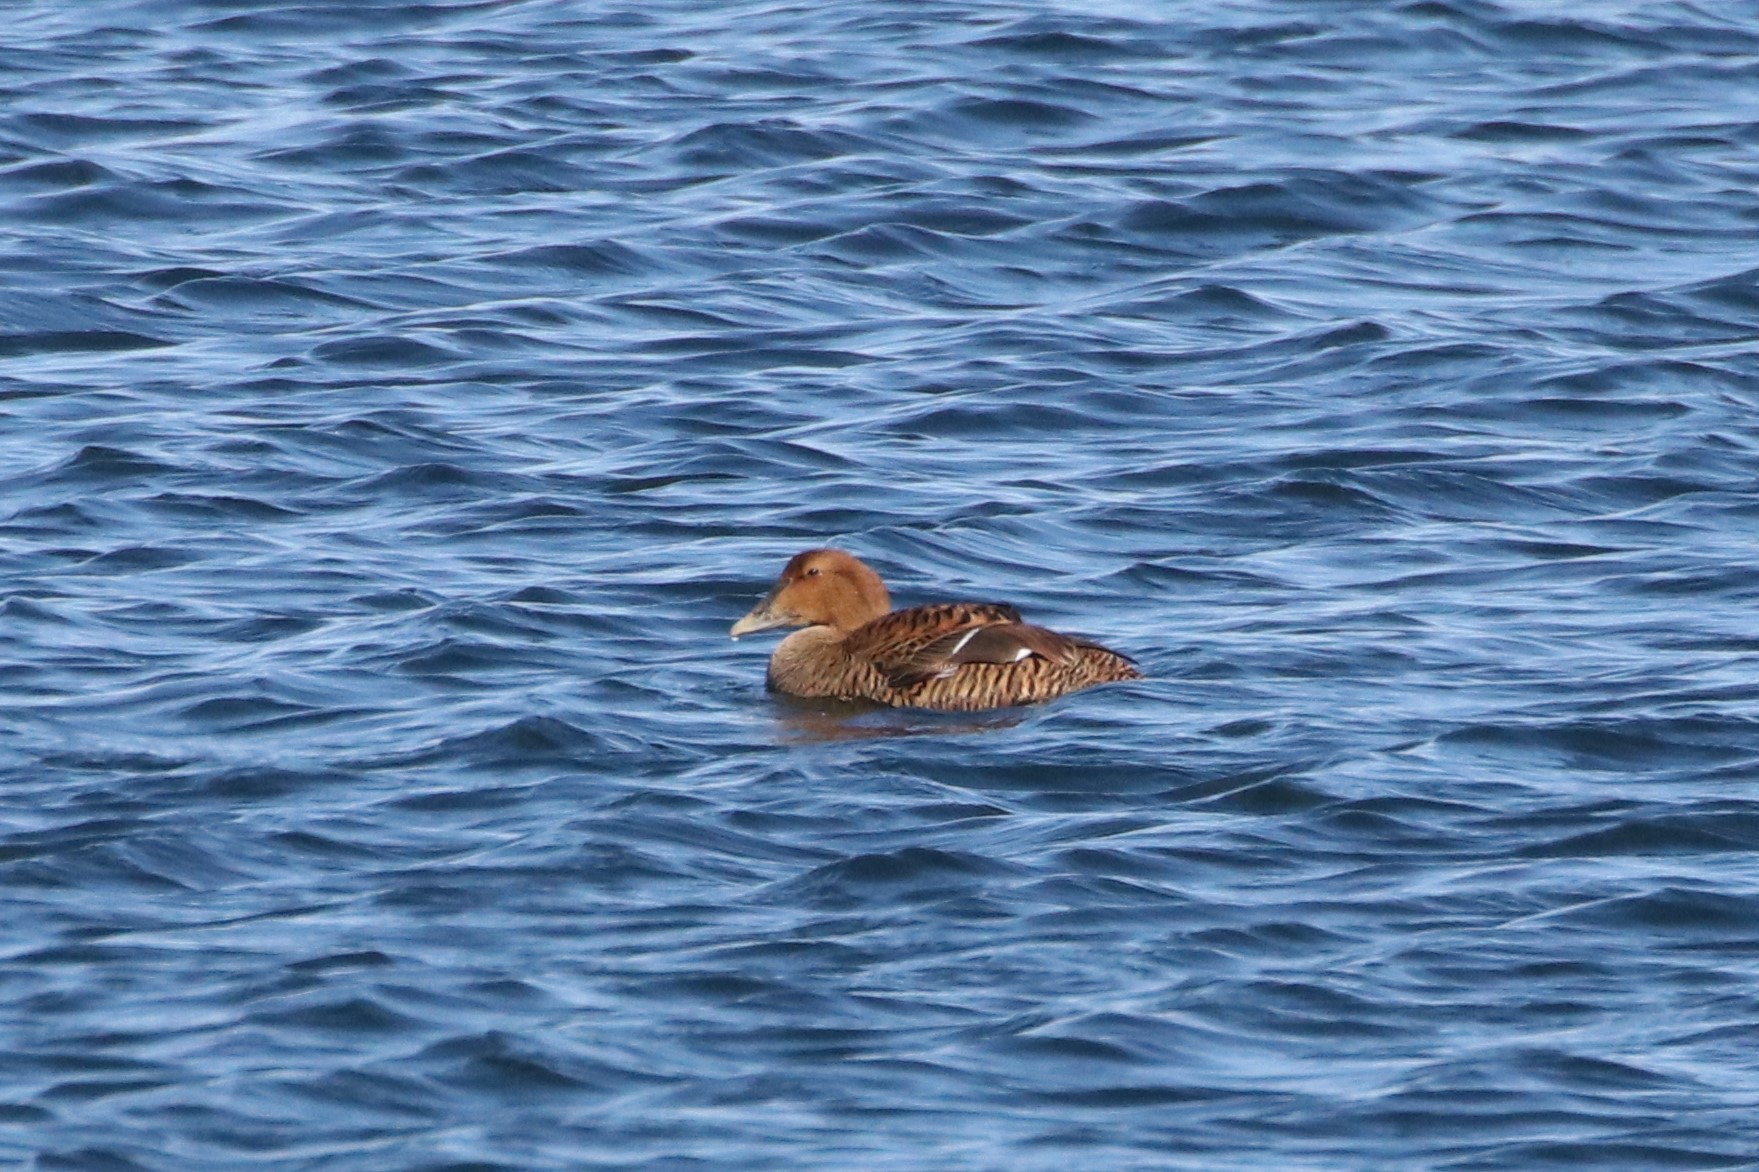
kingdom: Animalia
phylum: Chordata
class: Aves
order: Anseriformes
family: Anatidae
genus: Somateria
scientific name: Somateria mollissima
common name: Common eider
